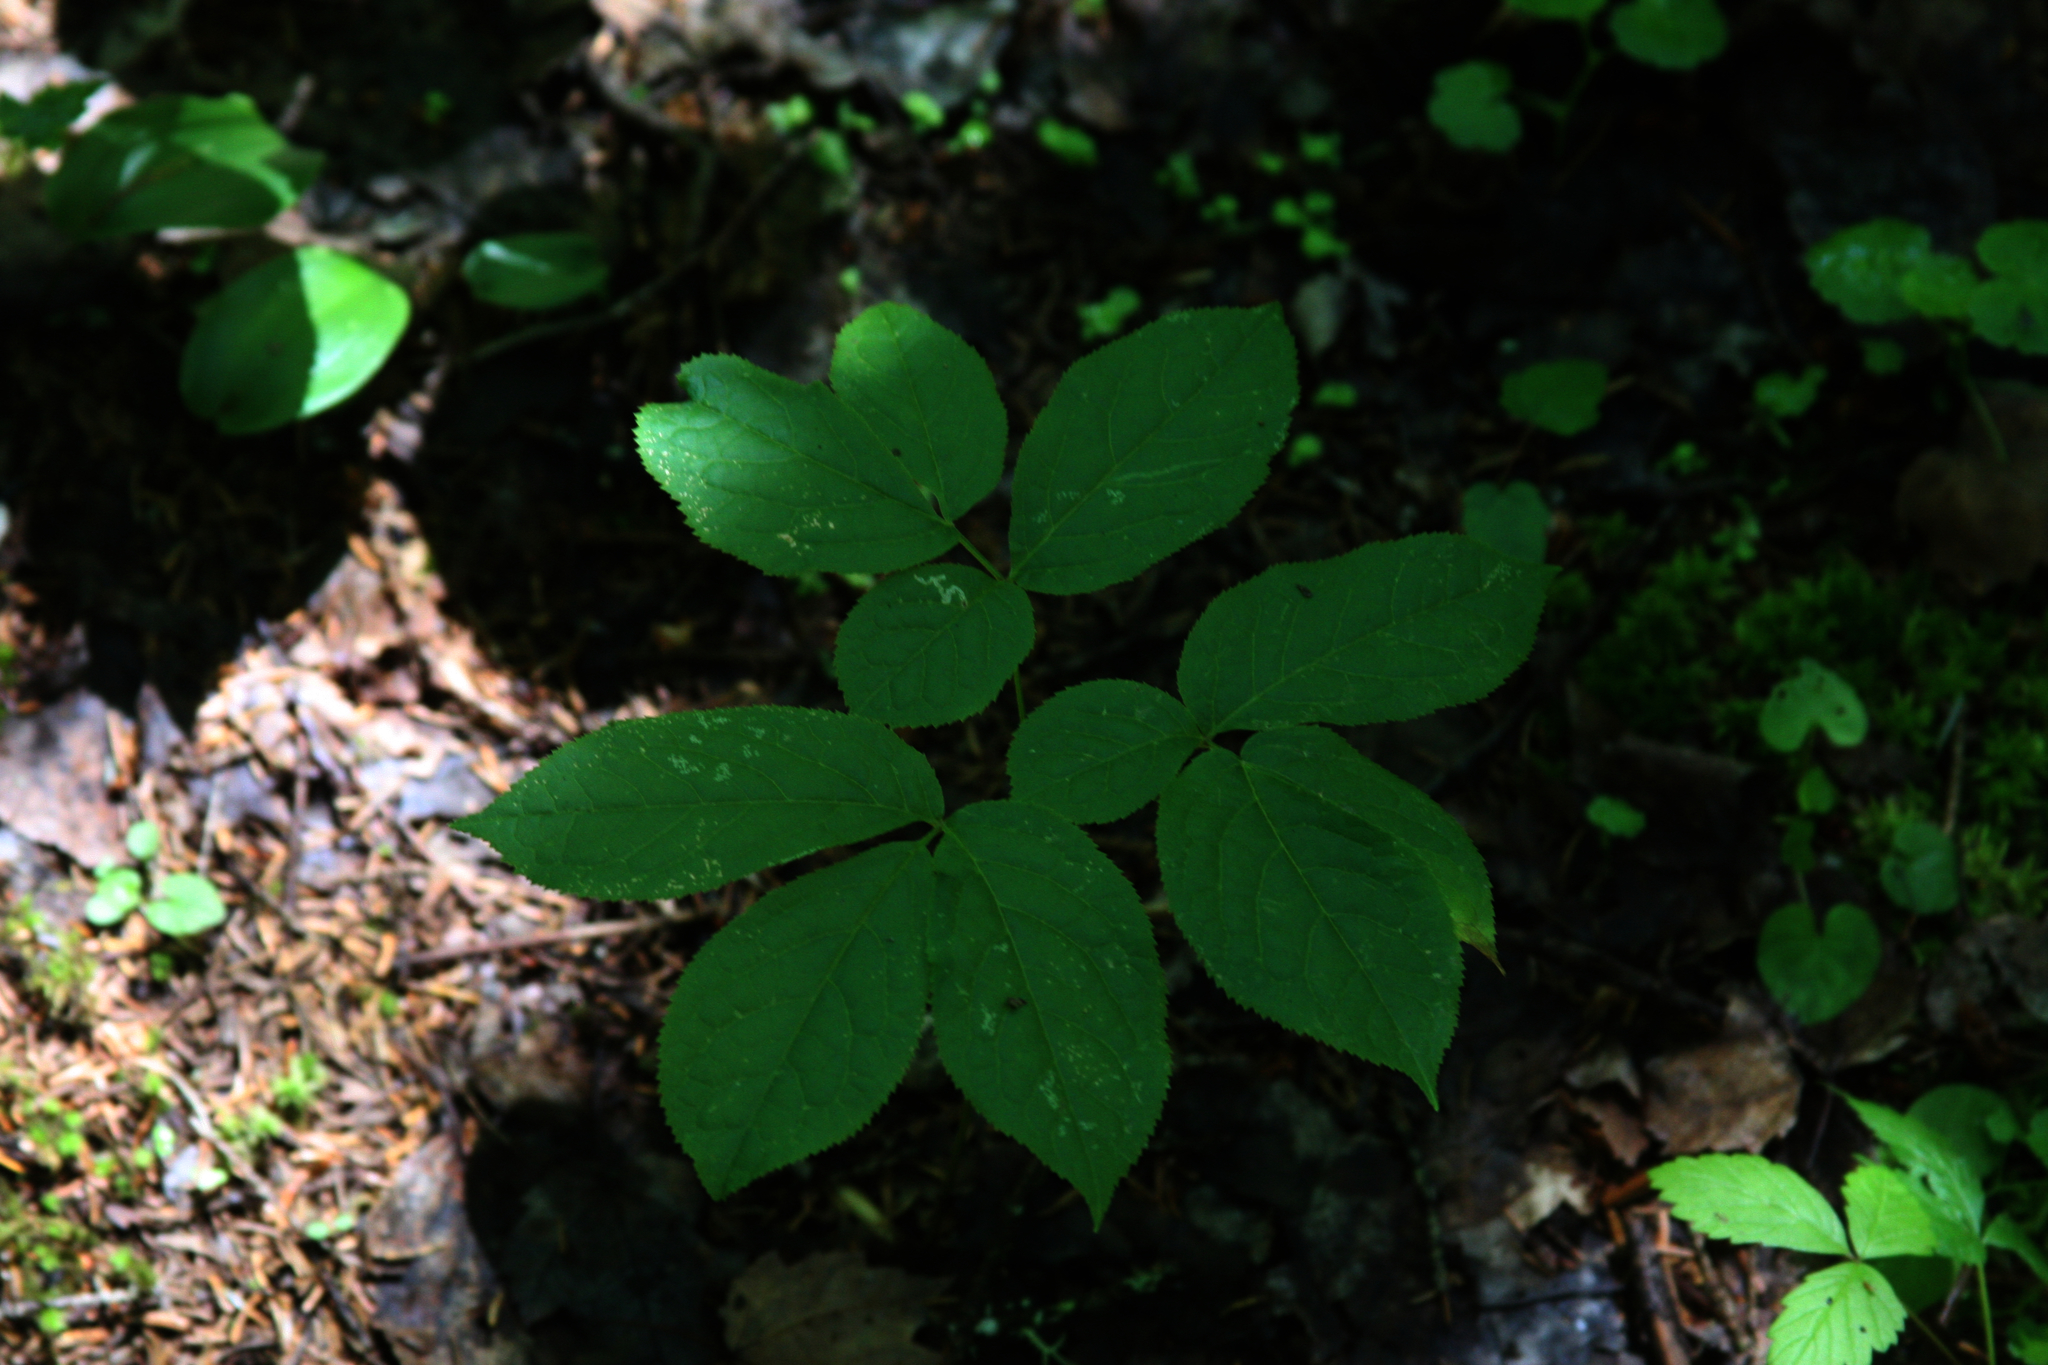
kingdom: Plantae
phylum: Tracheophyta
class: Magnoliopsida
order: Apiales
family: Araliaceae
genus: Aralia
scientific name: Aralia nudicaulis
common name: Wild sarsaparilla
